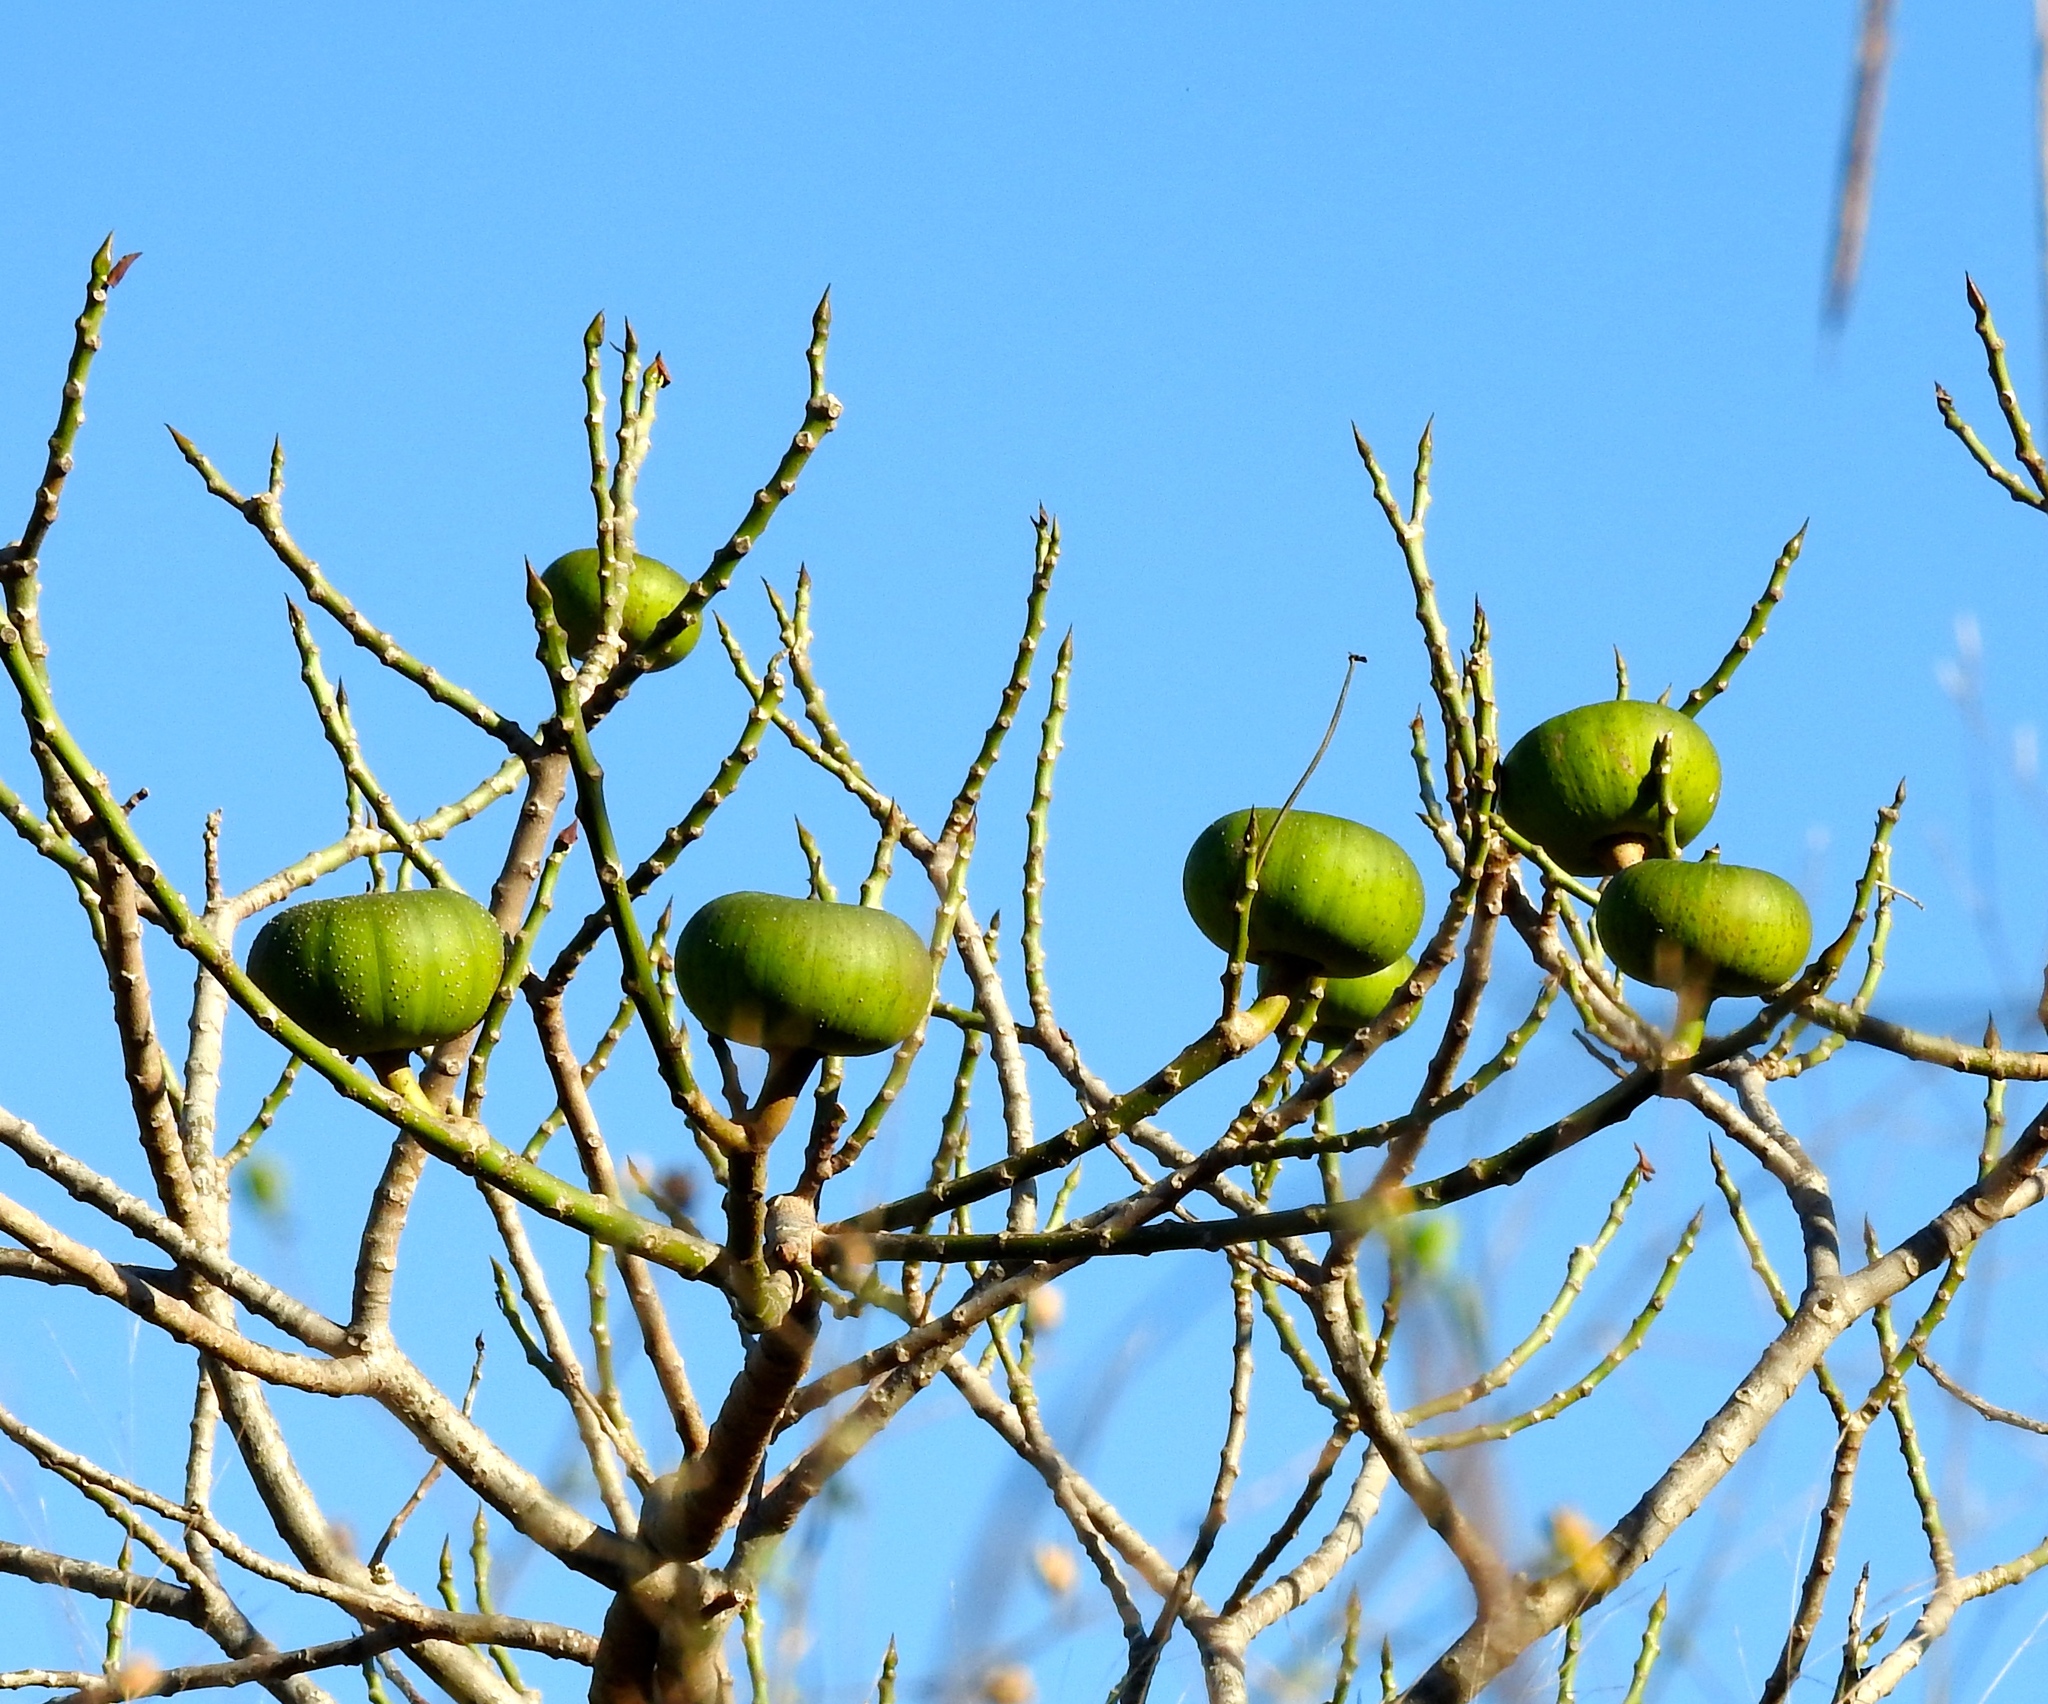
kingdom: Plantae
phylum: Tracheophyta
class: Magnoliopsida
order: Malpighiales
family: Euphorbiaceae
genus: Hura
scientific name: Hura polyandra
